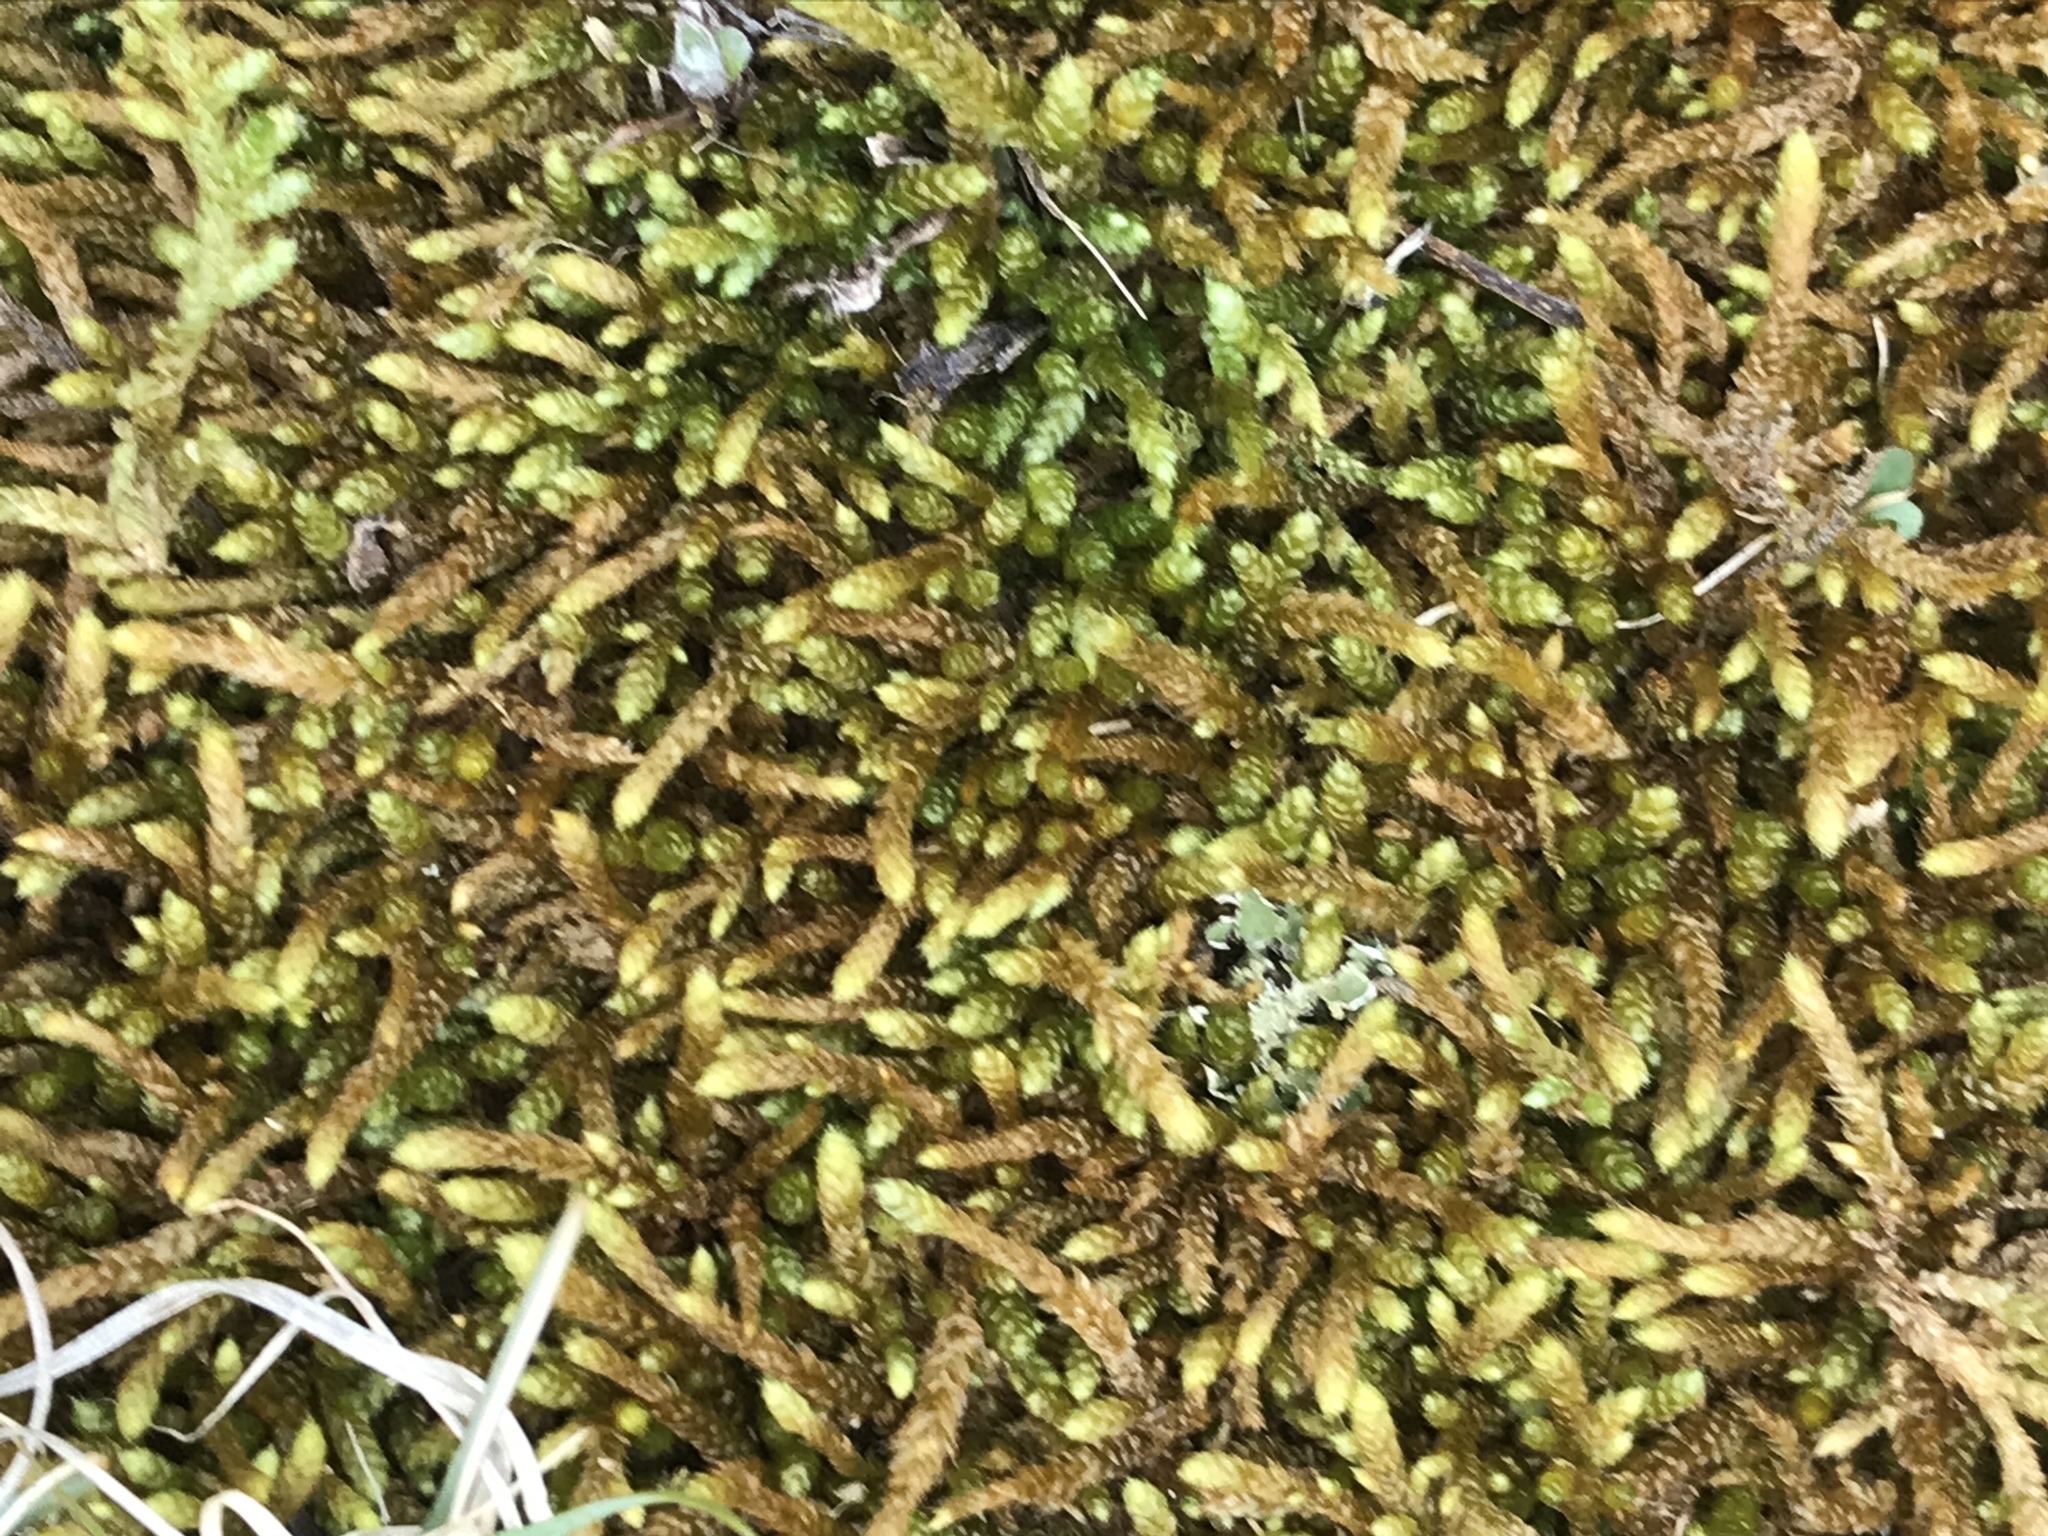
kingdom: Plantae
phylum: Bryophyta
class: Bryopsida
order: Hypnales
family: Entodontaceae
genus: Entodon
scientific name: Entodon seductrix
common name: Round-stemmed entodon moss
